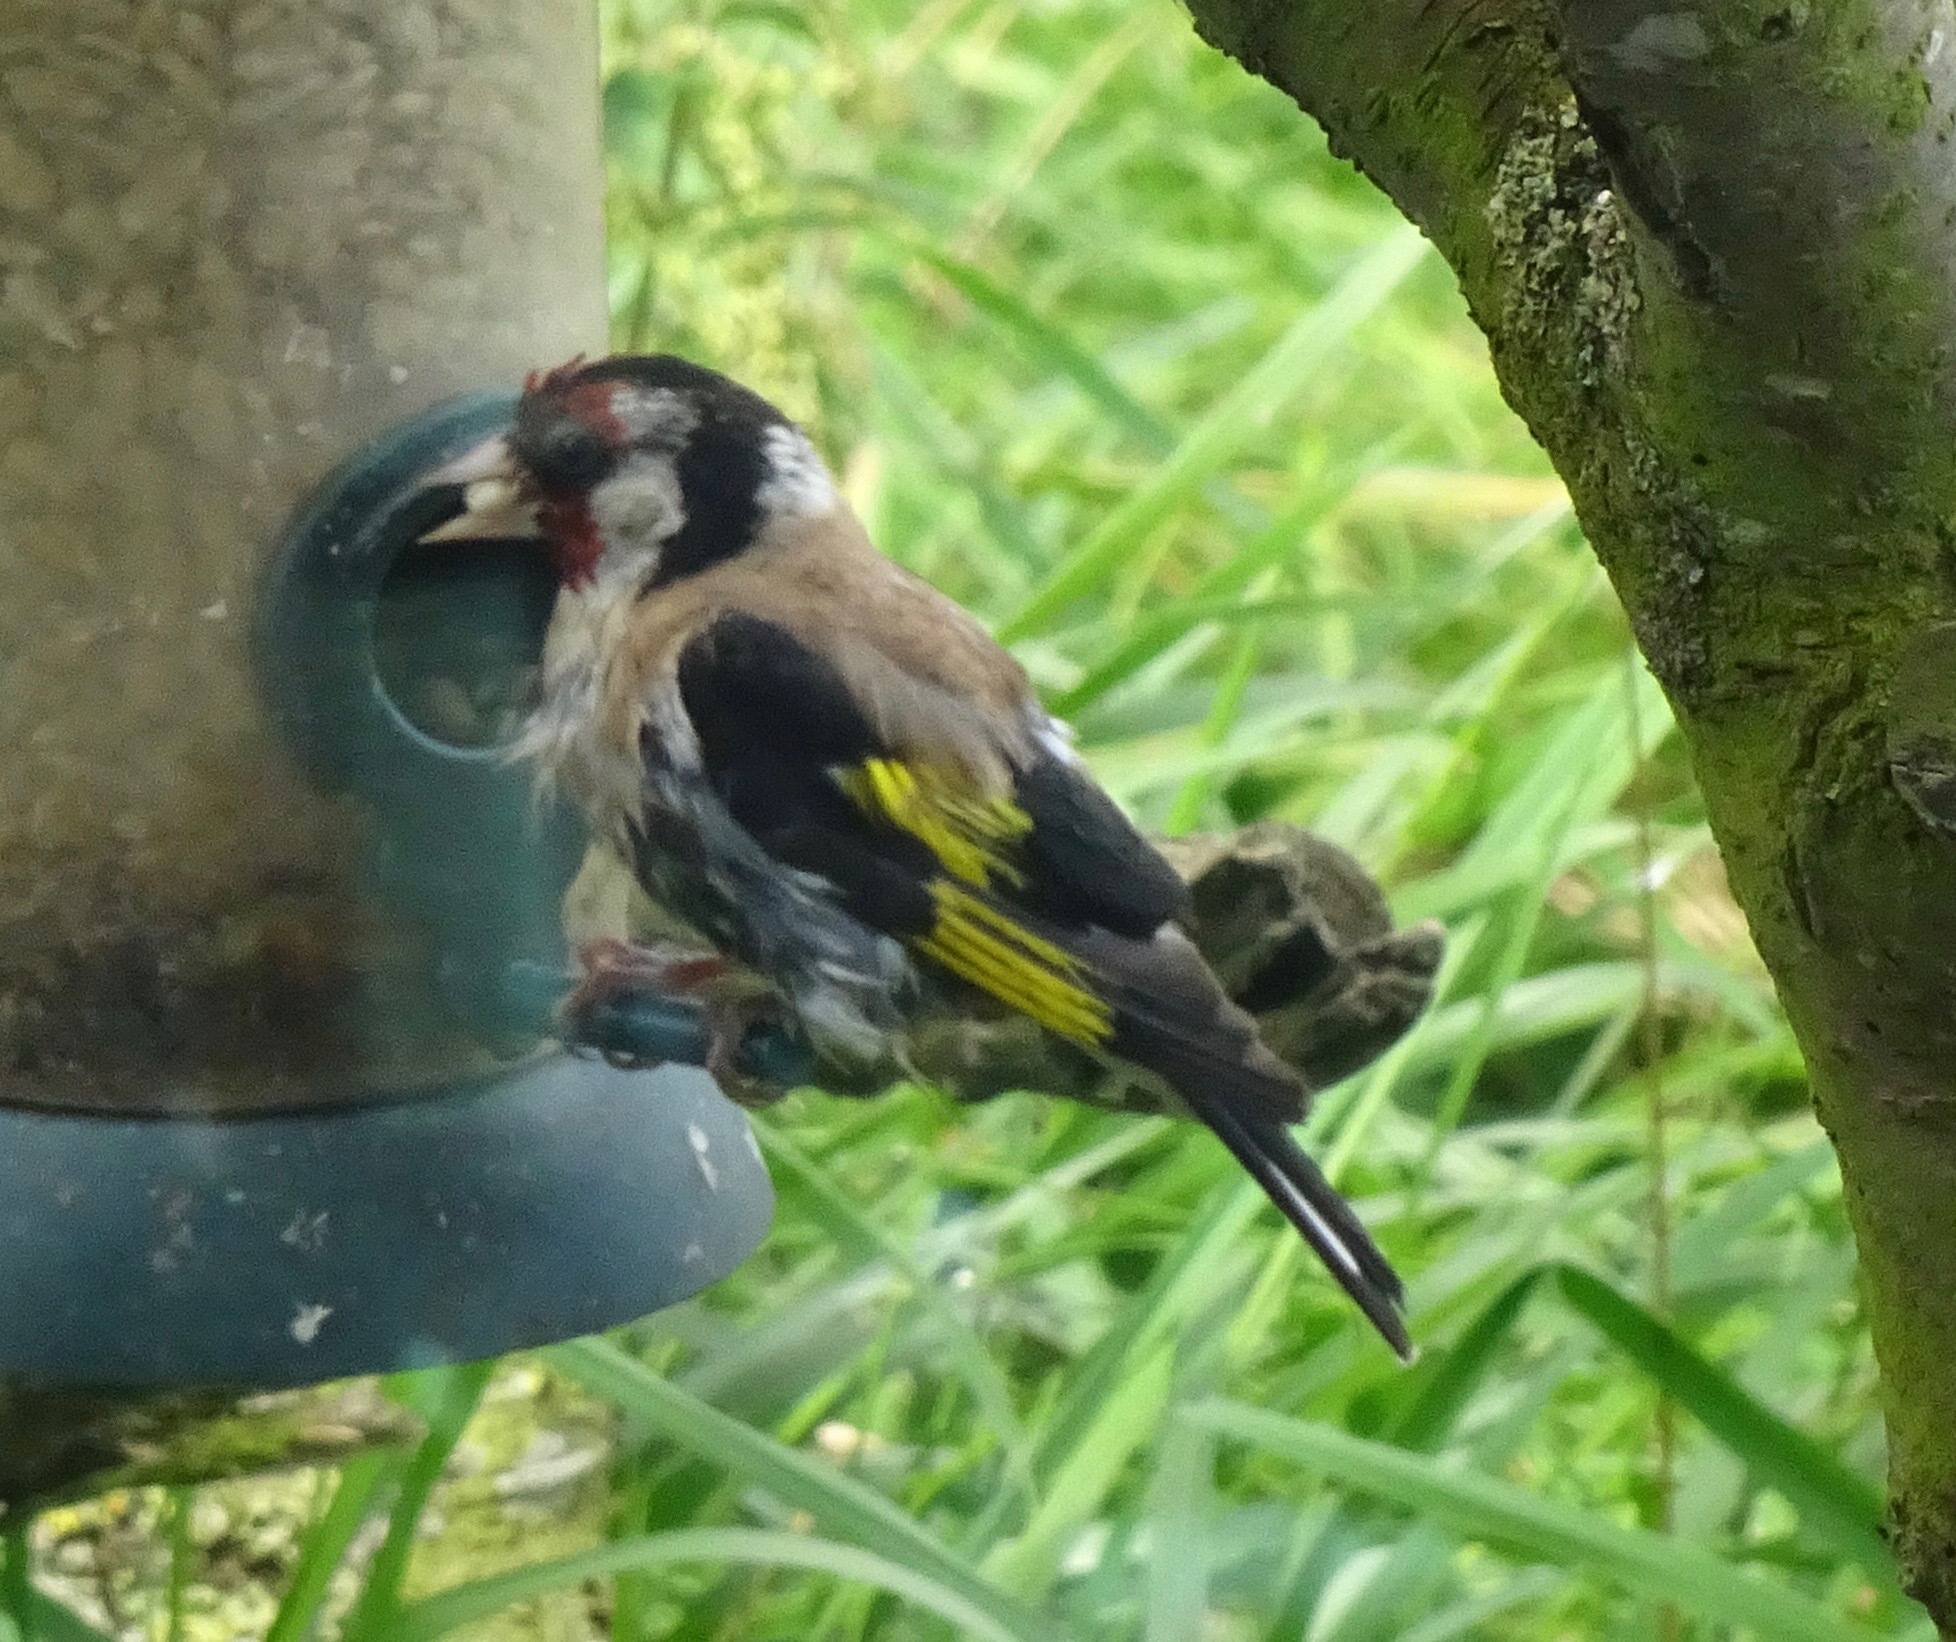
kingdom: Animalia
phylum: Chordata
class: Aves
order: Passeriformes
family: Fringillidae
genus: Carduelis
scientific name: Carduelis carduelis
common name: European goldfinch
